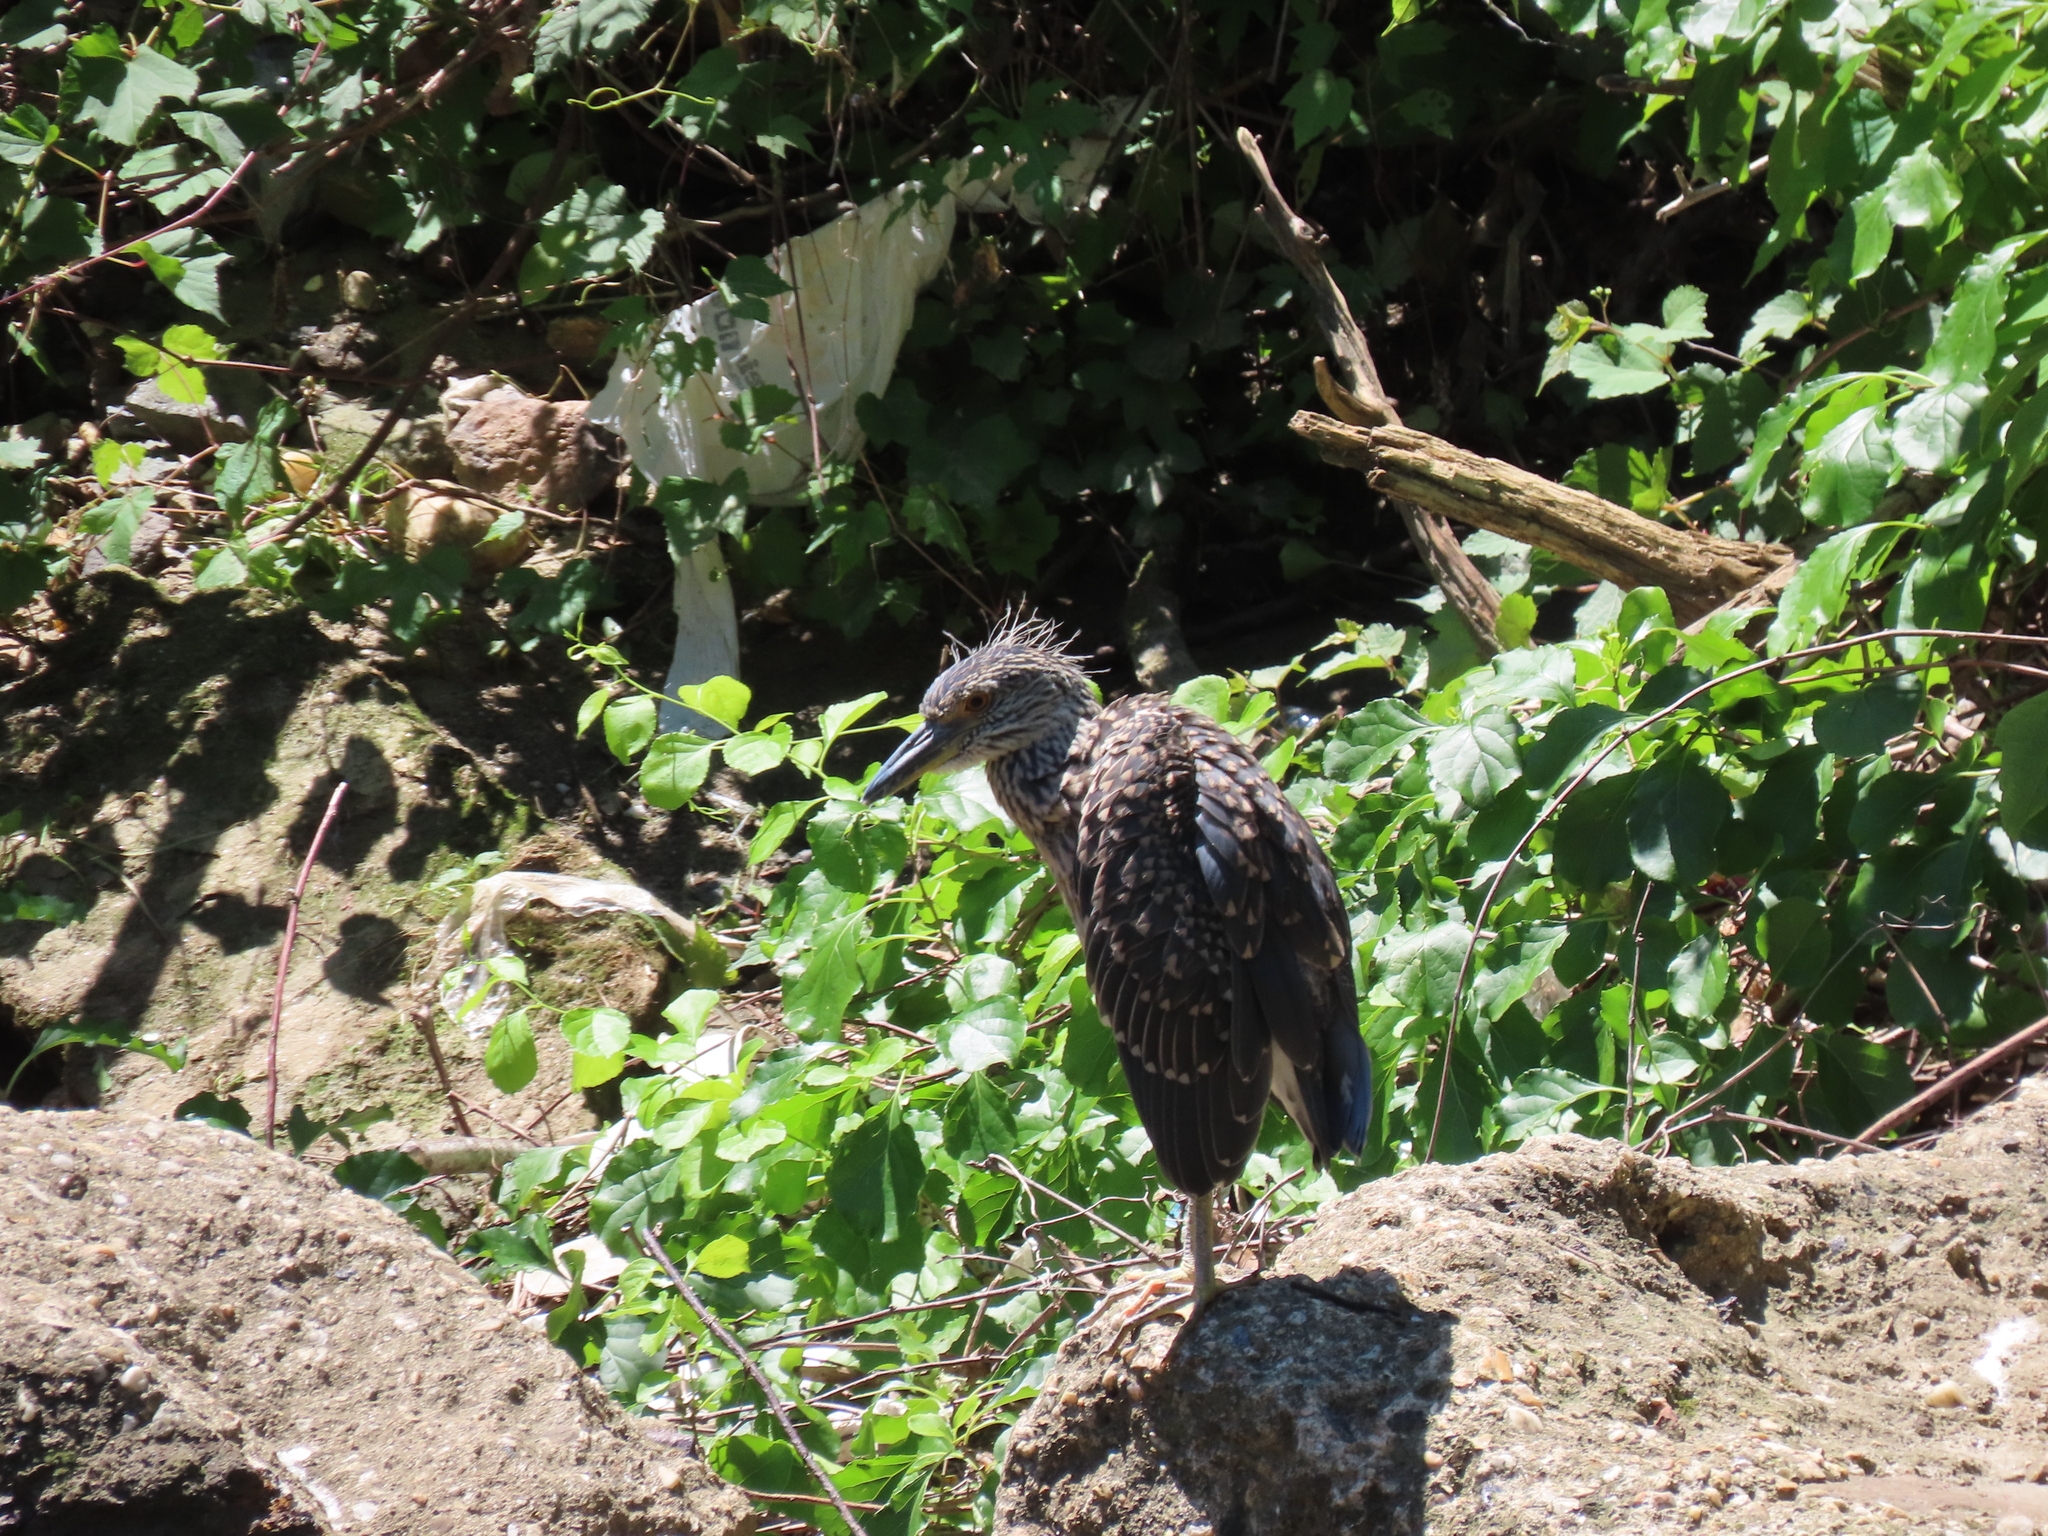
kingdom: Animalia
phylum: Chordata
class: Aves
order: Pelecaniformes
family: Ardeidae
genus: Nyctanassa
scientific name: Nyctanassa violacea
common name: Yellow-crowned night heron
